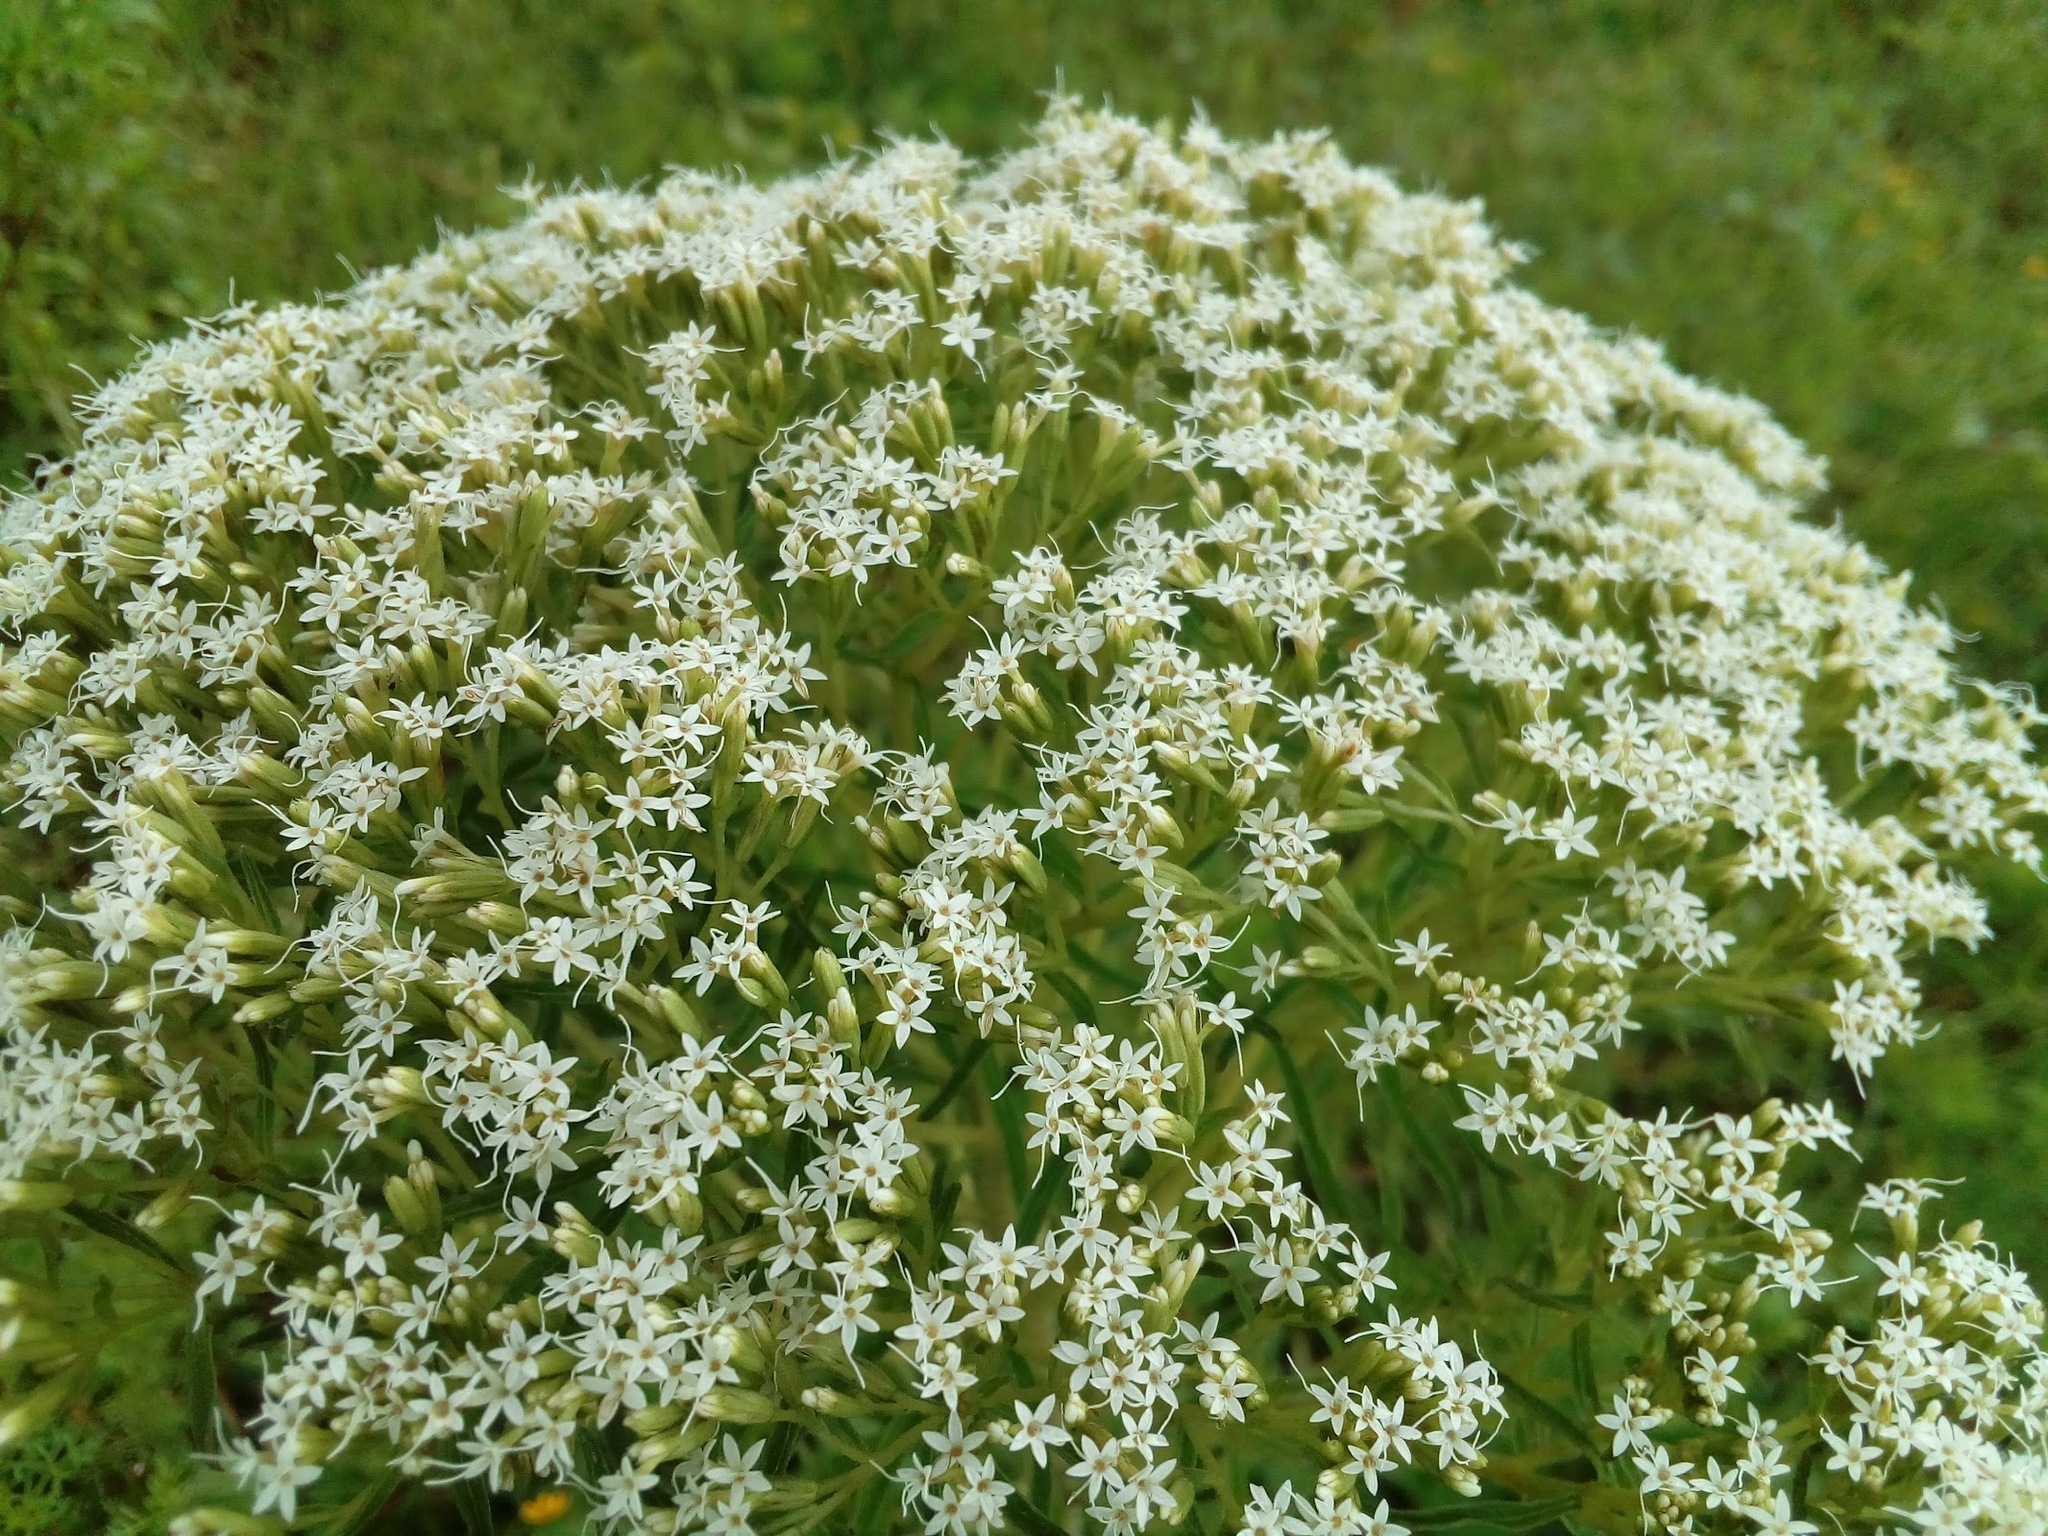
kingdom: Plantae
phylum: Tracheophyta
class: Magnoliopsida
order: Asterales
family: Asteraceae
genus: Stevia
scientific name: Stevia serrata
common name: Sawtooth candyleaf
